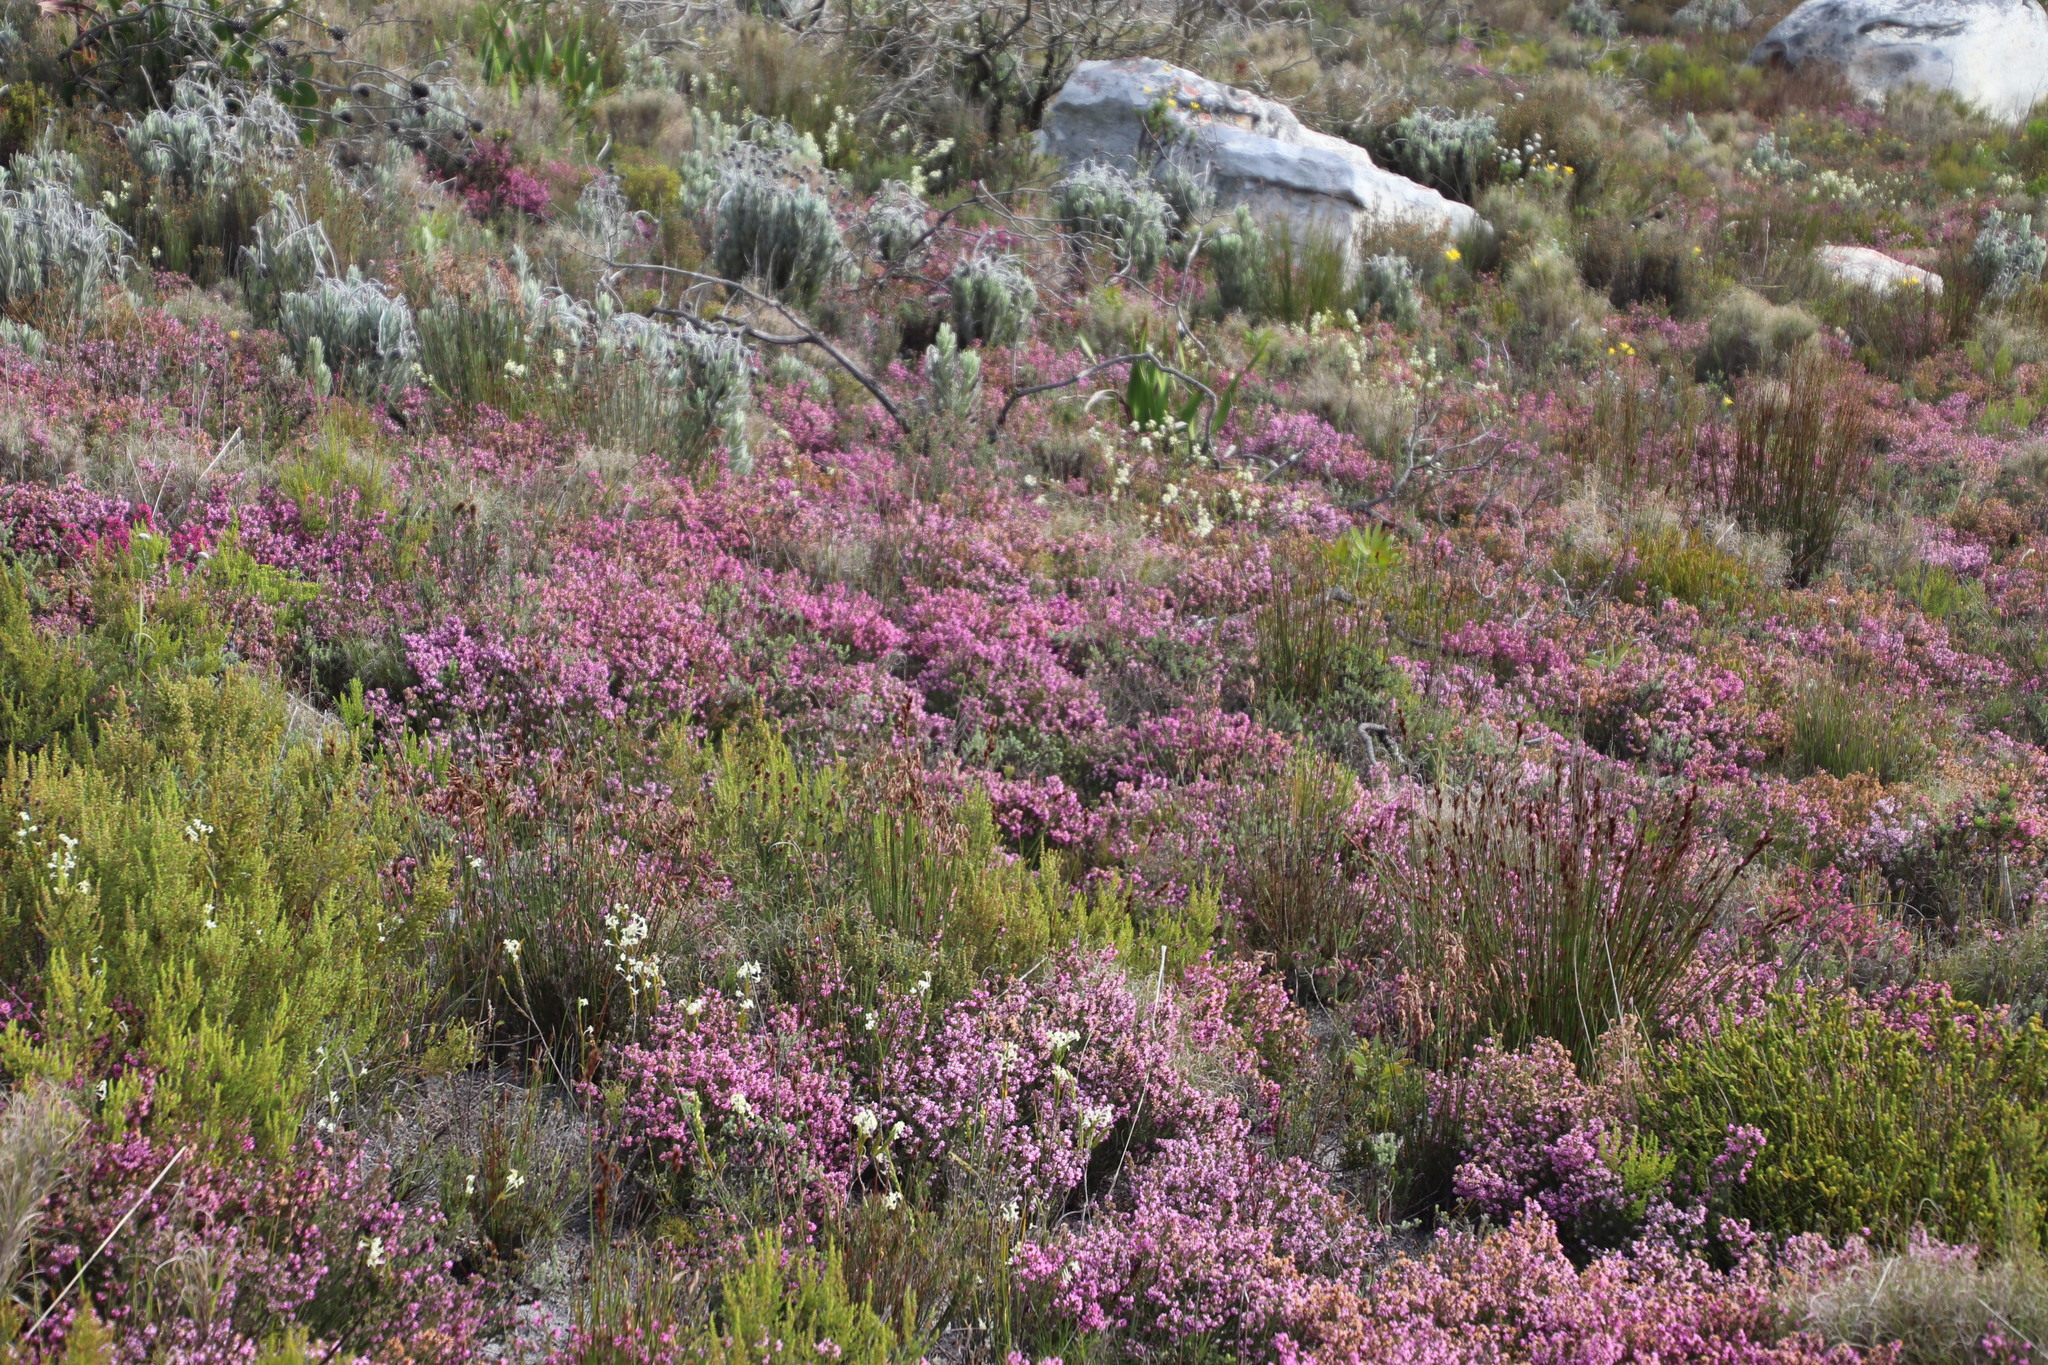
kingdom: Plantae
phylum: Tracheophyta
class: Magnoliopsida
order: Ericales
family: Ericaceae
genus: Erica
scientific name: Erica glabella
